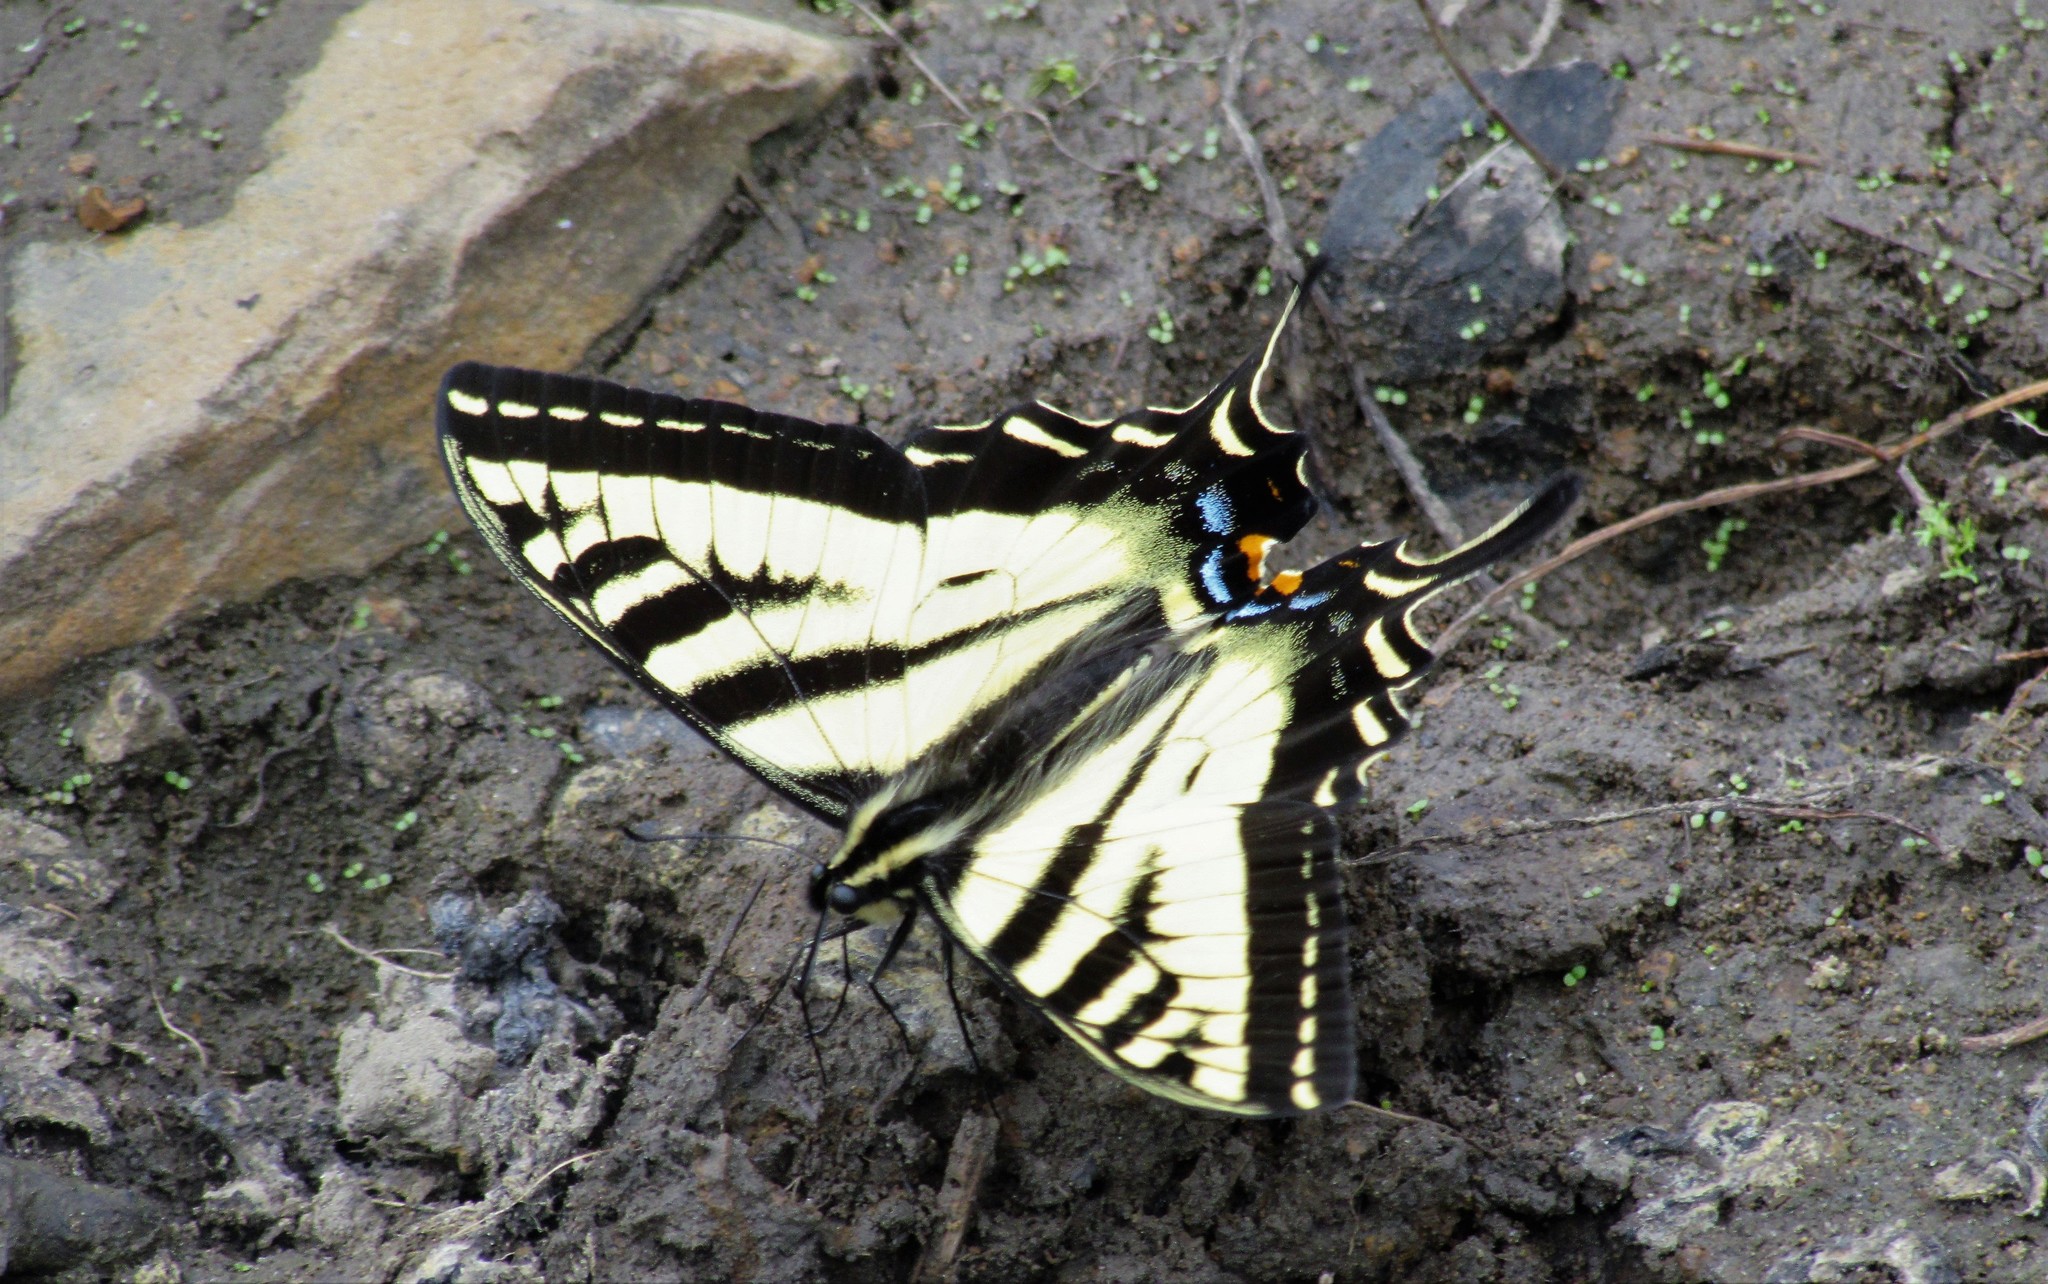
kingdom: Animalia
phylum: Arthropoda
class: Insecta
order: Lepidoptera
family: Papilionidae
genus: Papilio
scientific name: Papilio rutulus
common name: Western tiger swallowtail
